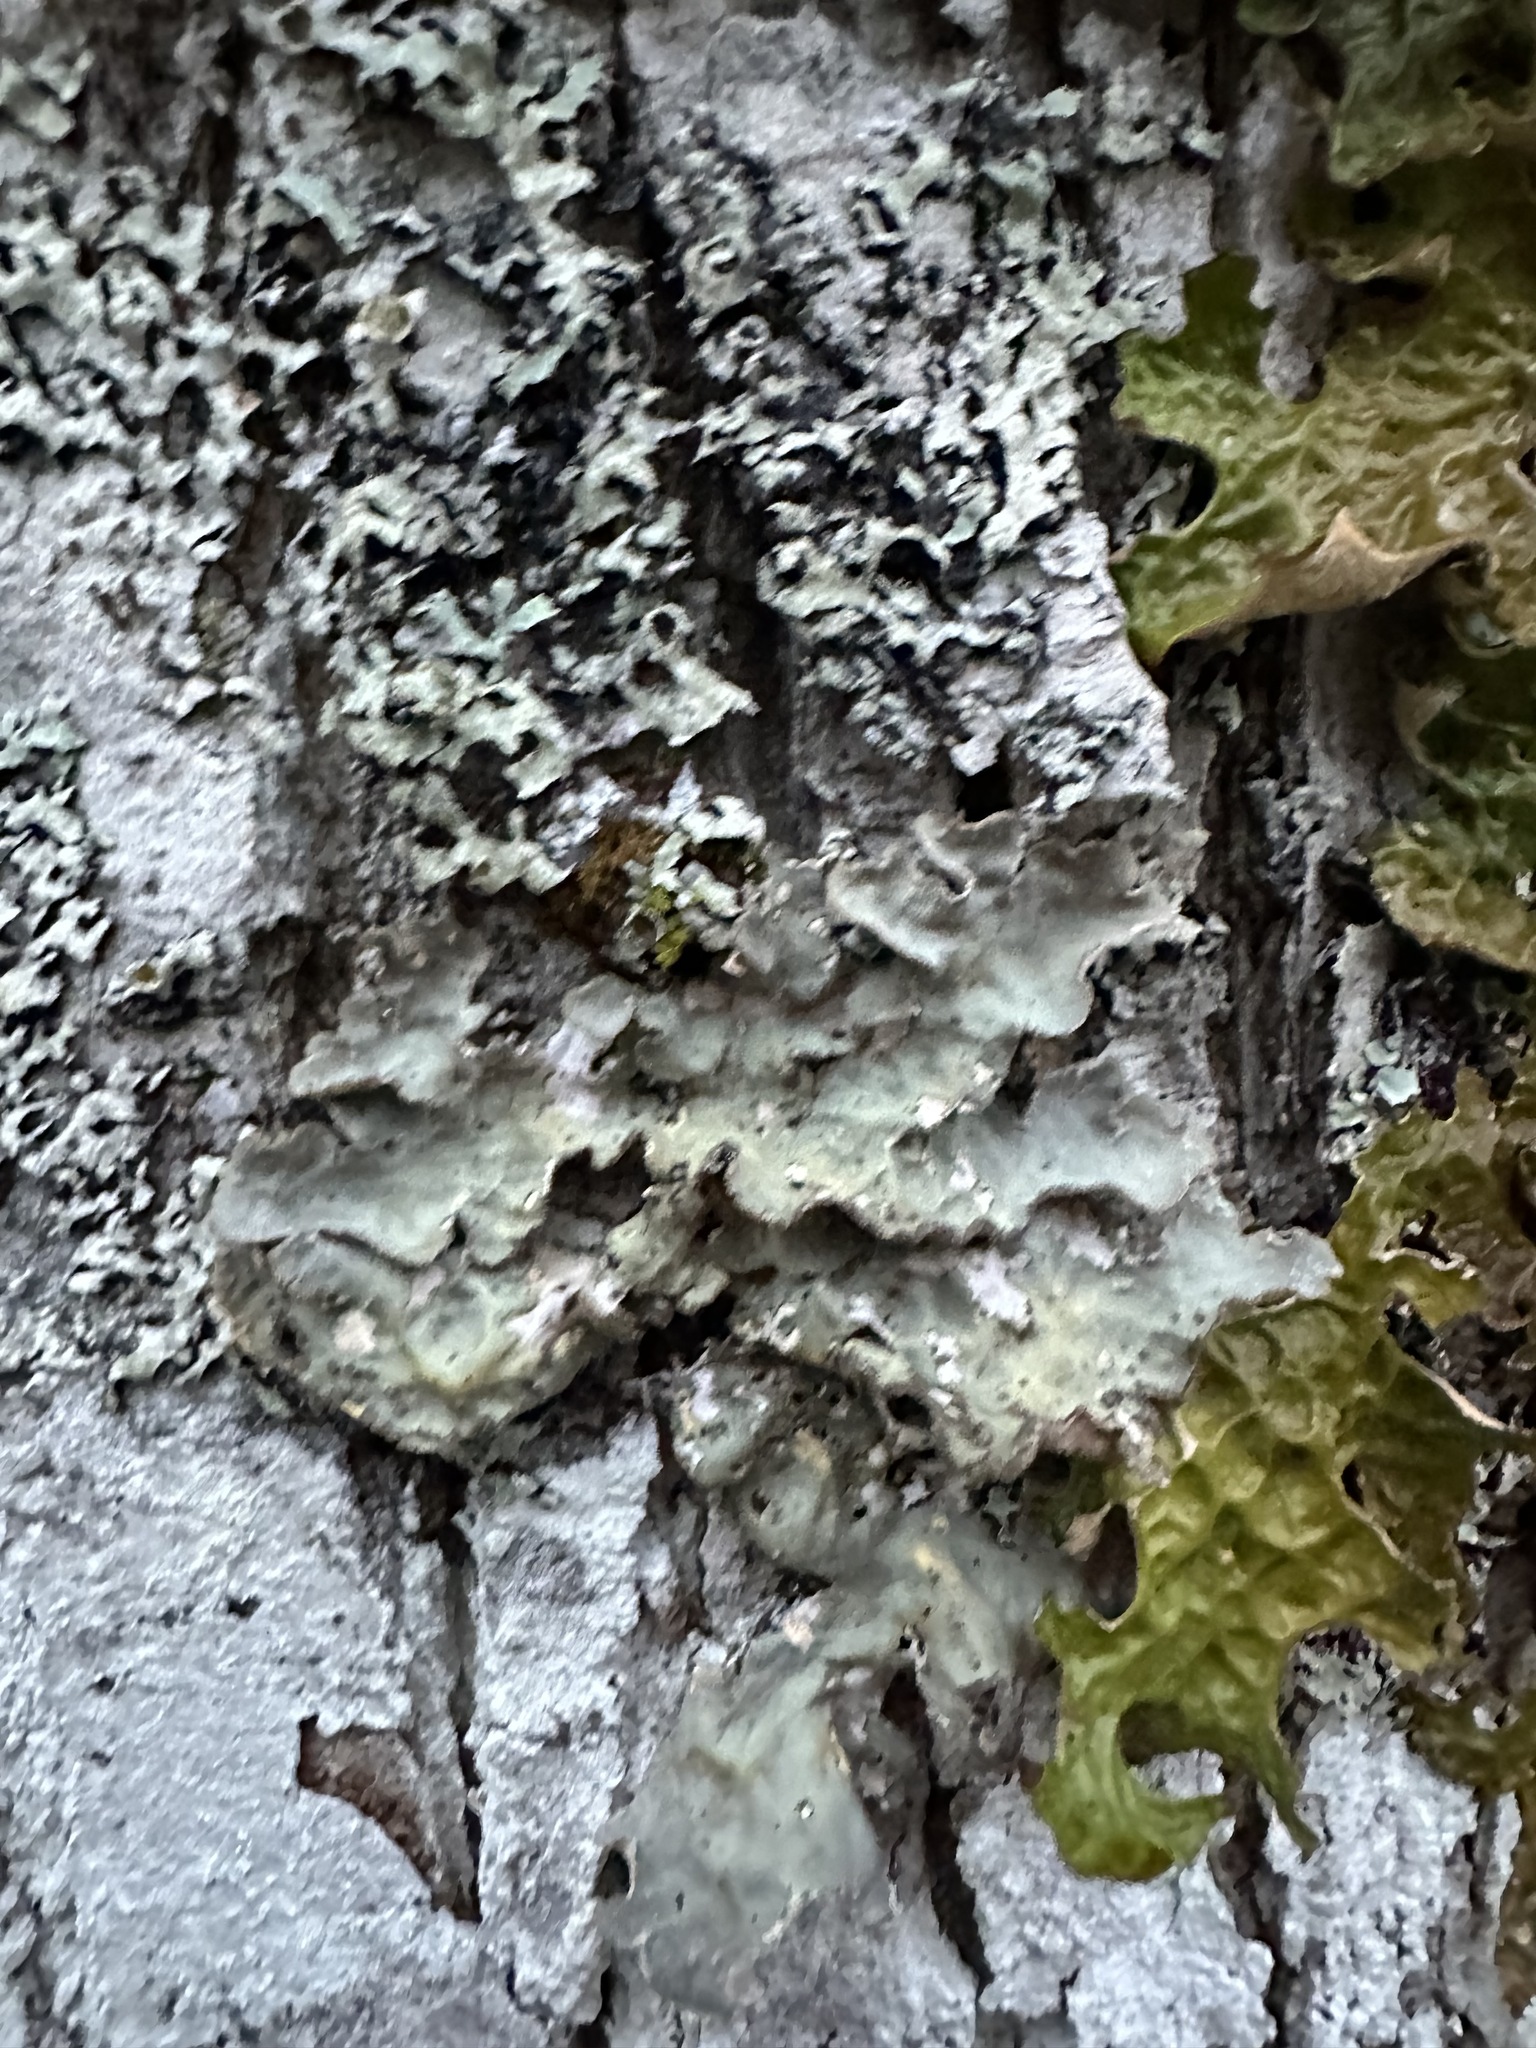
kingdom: Fungi
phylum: Ascomycota
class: Lecanoromycetes
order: Peltigerales
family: Lobariaceae
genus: Lobarina
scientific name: Lobarina scrobiculata
